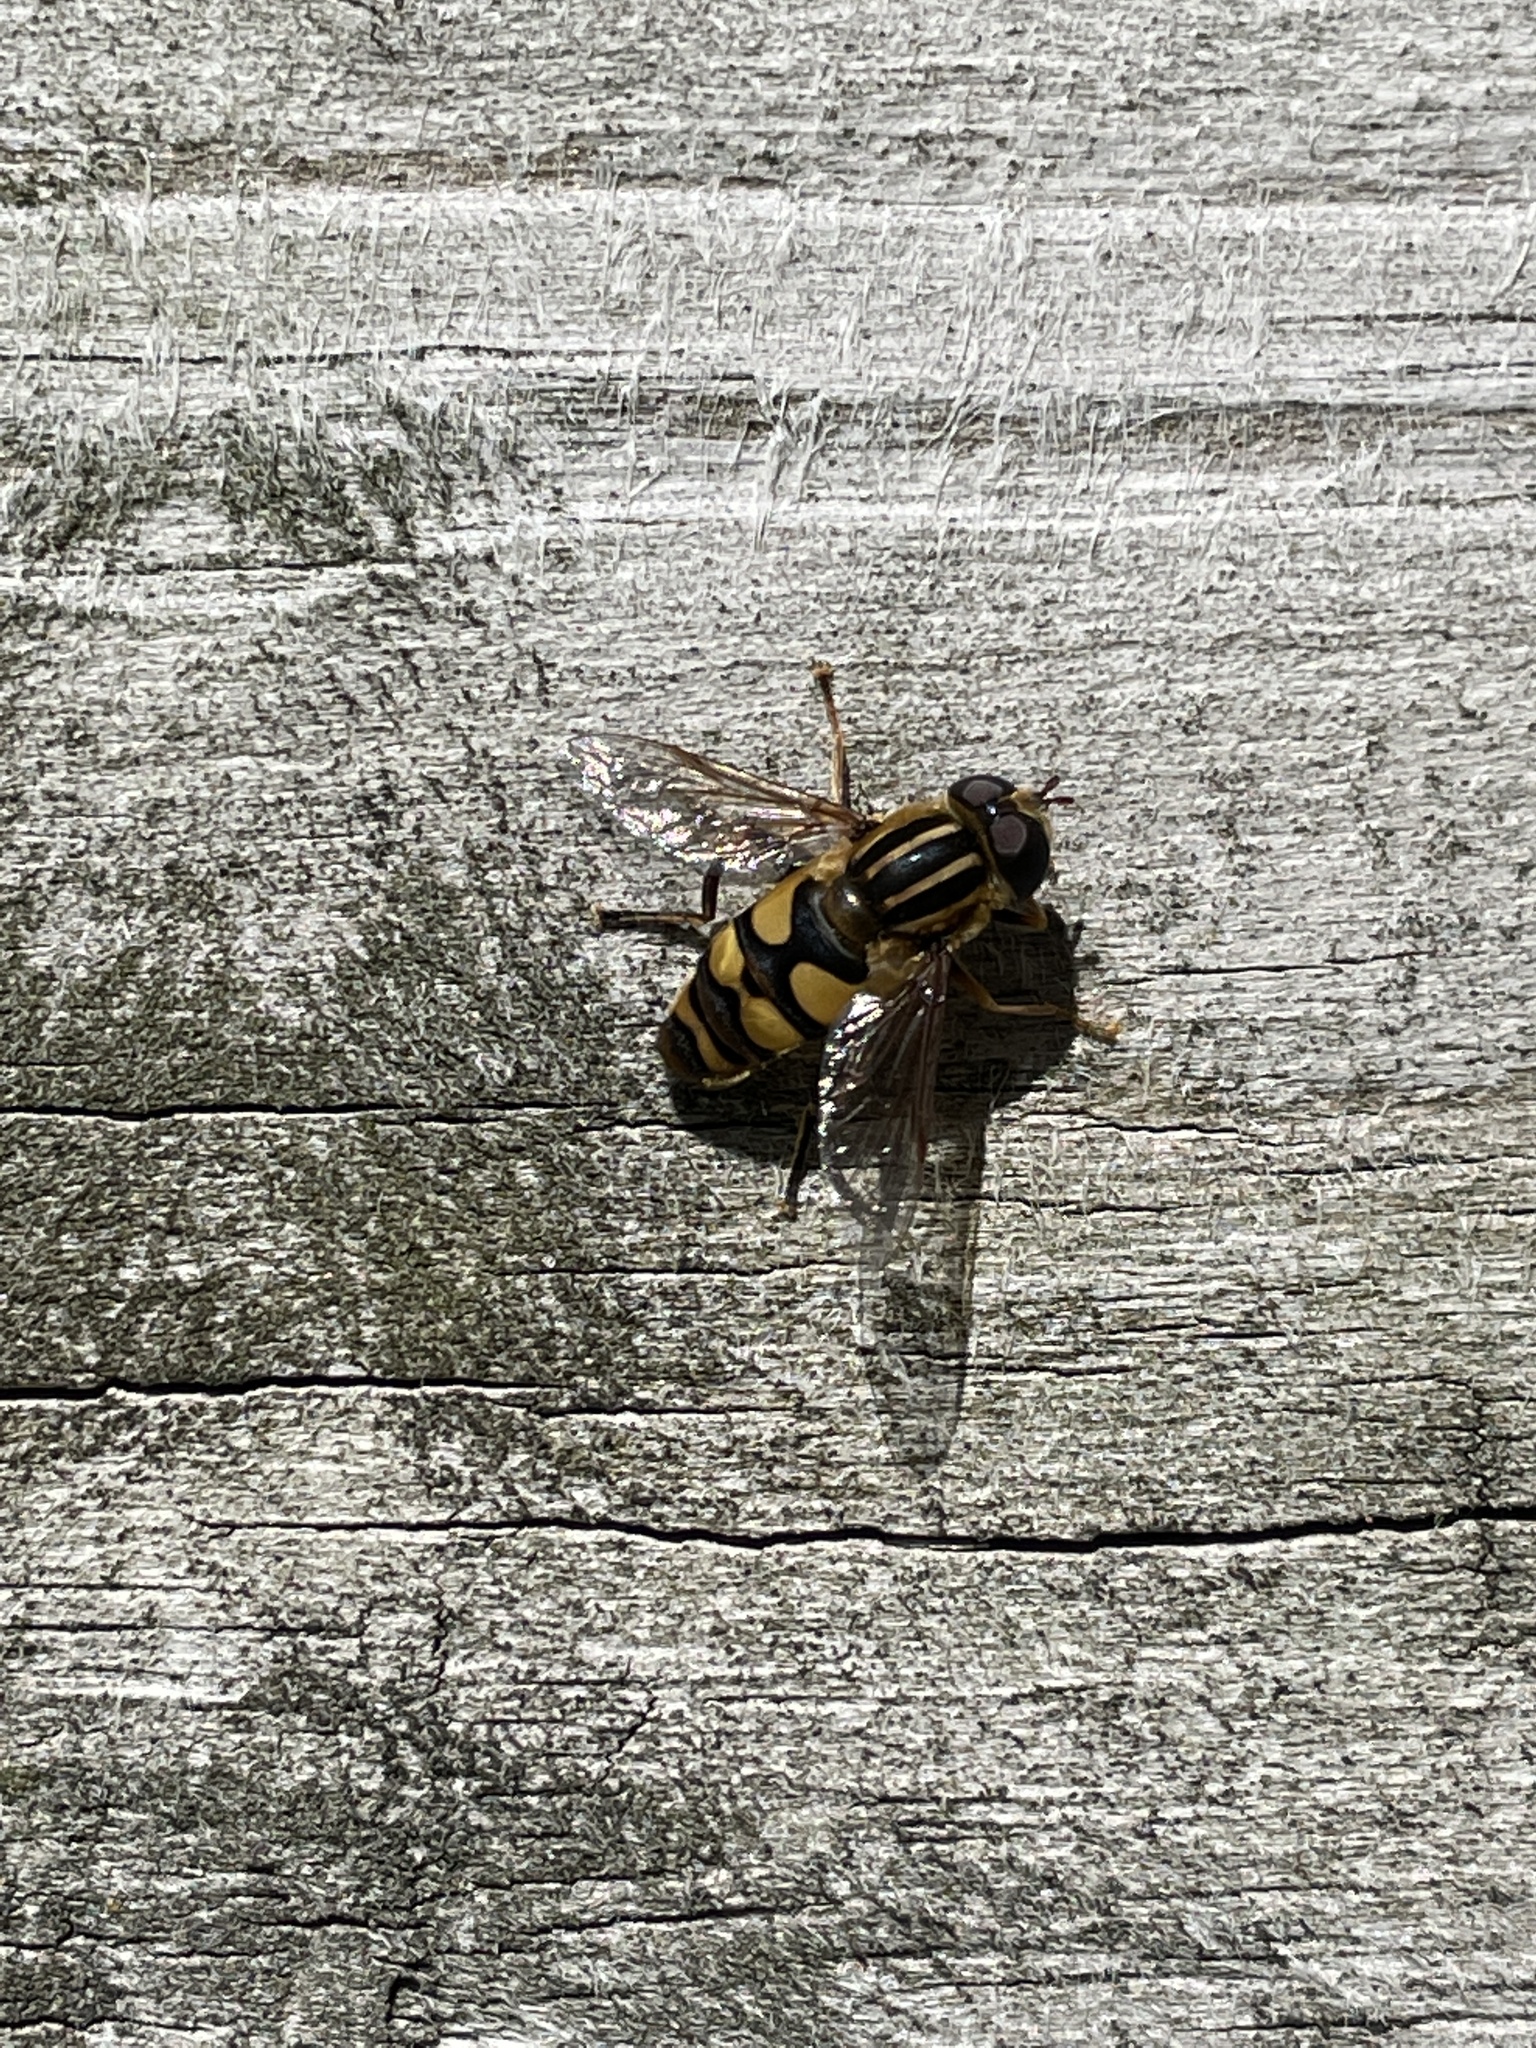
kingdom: Animalia
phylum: Arthropoda
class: Insecta
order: Diptera
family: Syrphidae
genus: Helophilus
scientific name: Helophilus fasciatus
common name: Narrow-headed marsh fly
